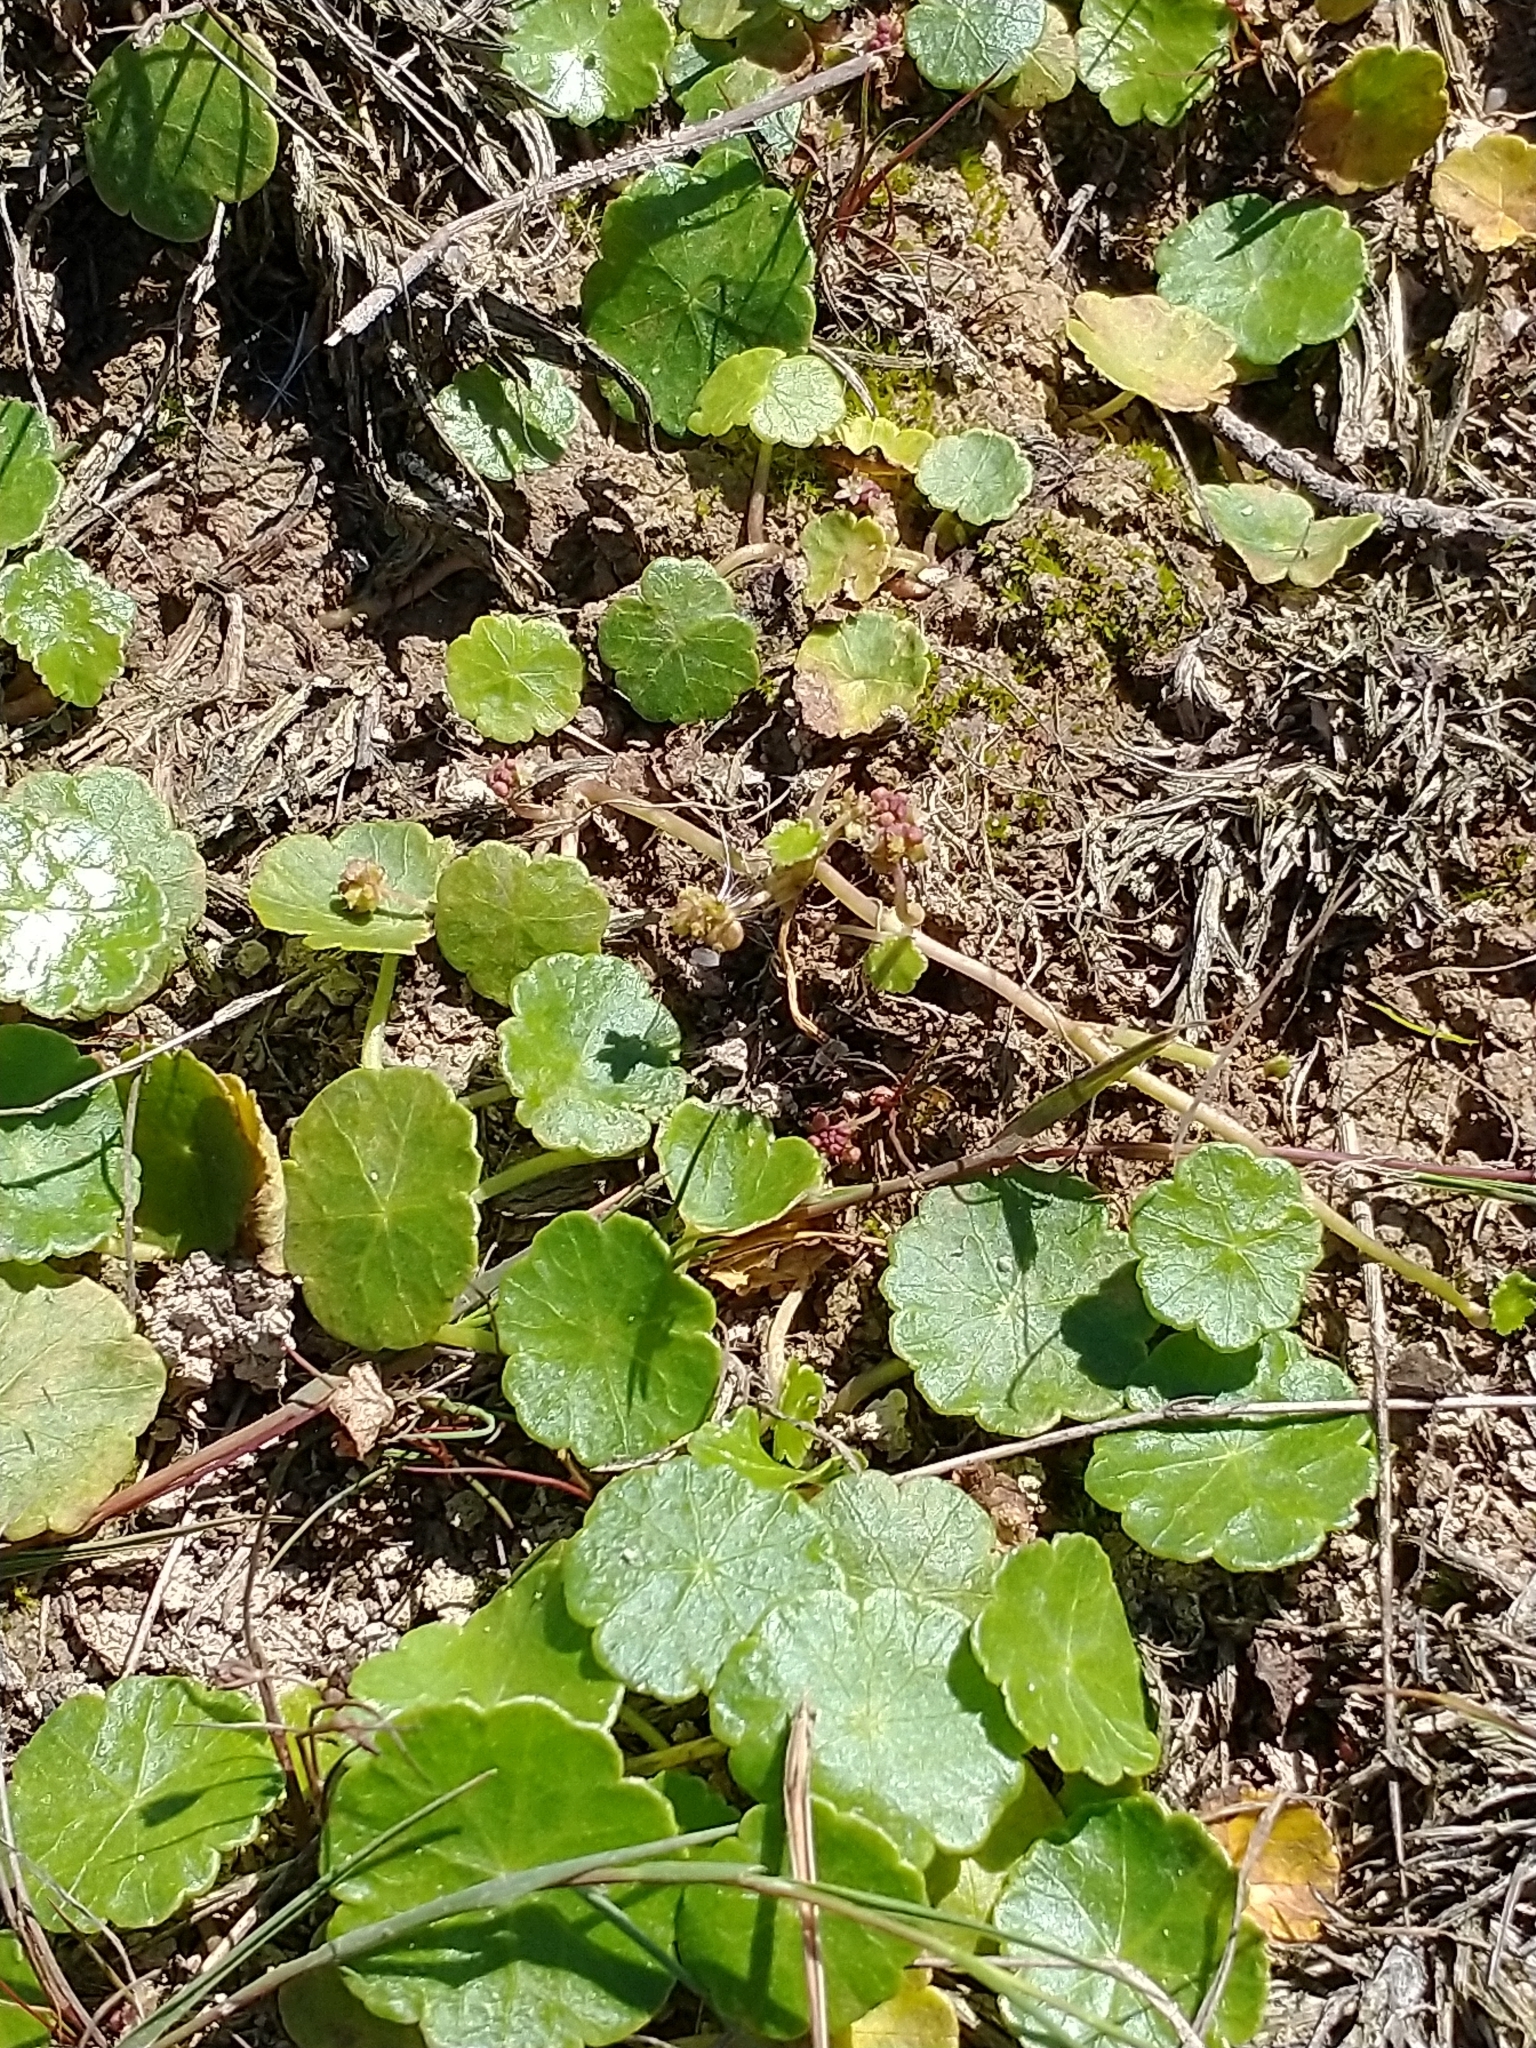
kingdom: Plantae
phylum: Tracheophyta
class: Magnoliopsida
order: Apiales
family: Araliaceae
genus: Hydrocotyle
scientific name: Hydrocotyle vulgaris
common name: Marsh pennywort
